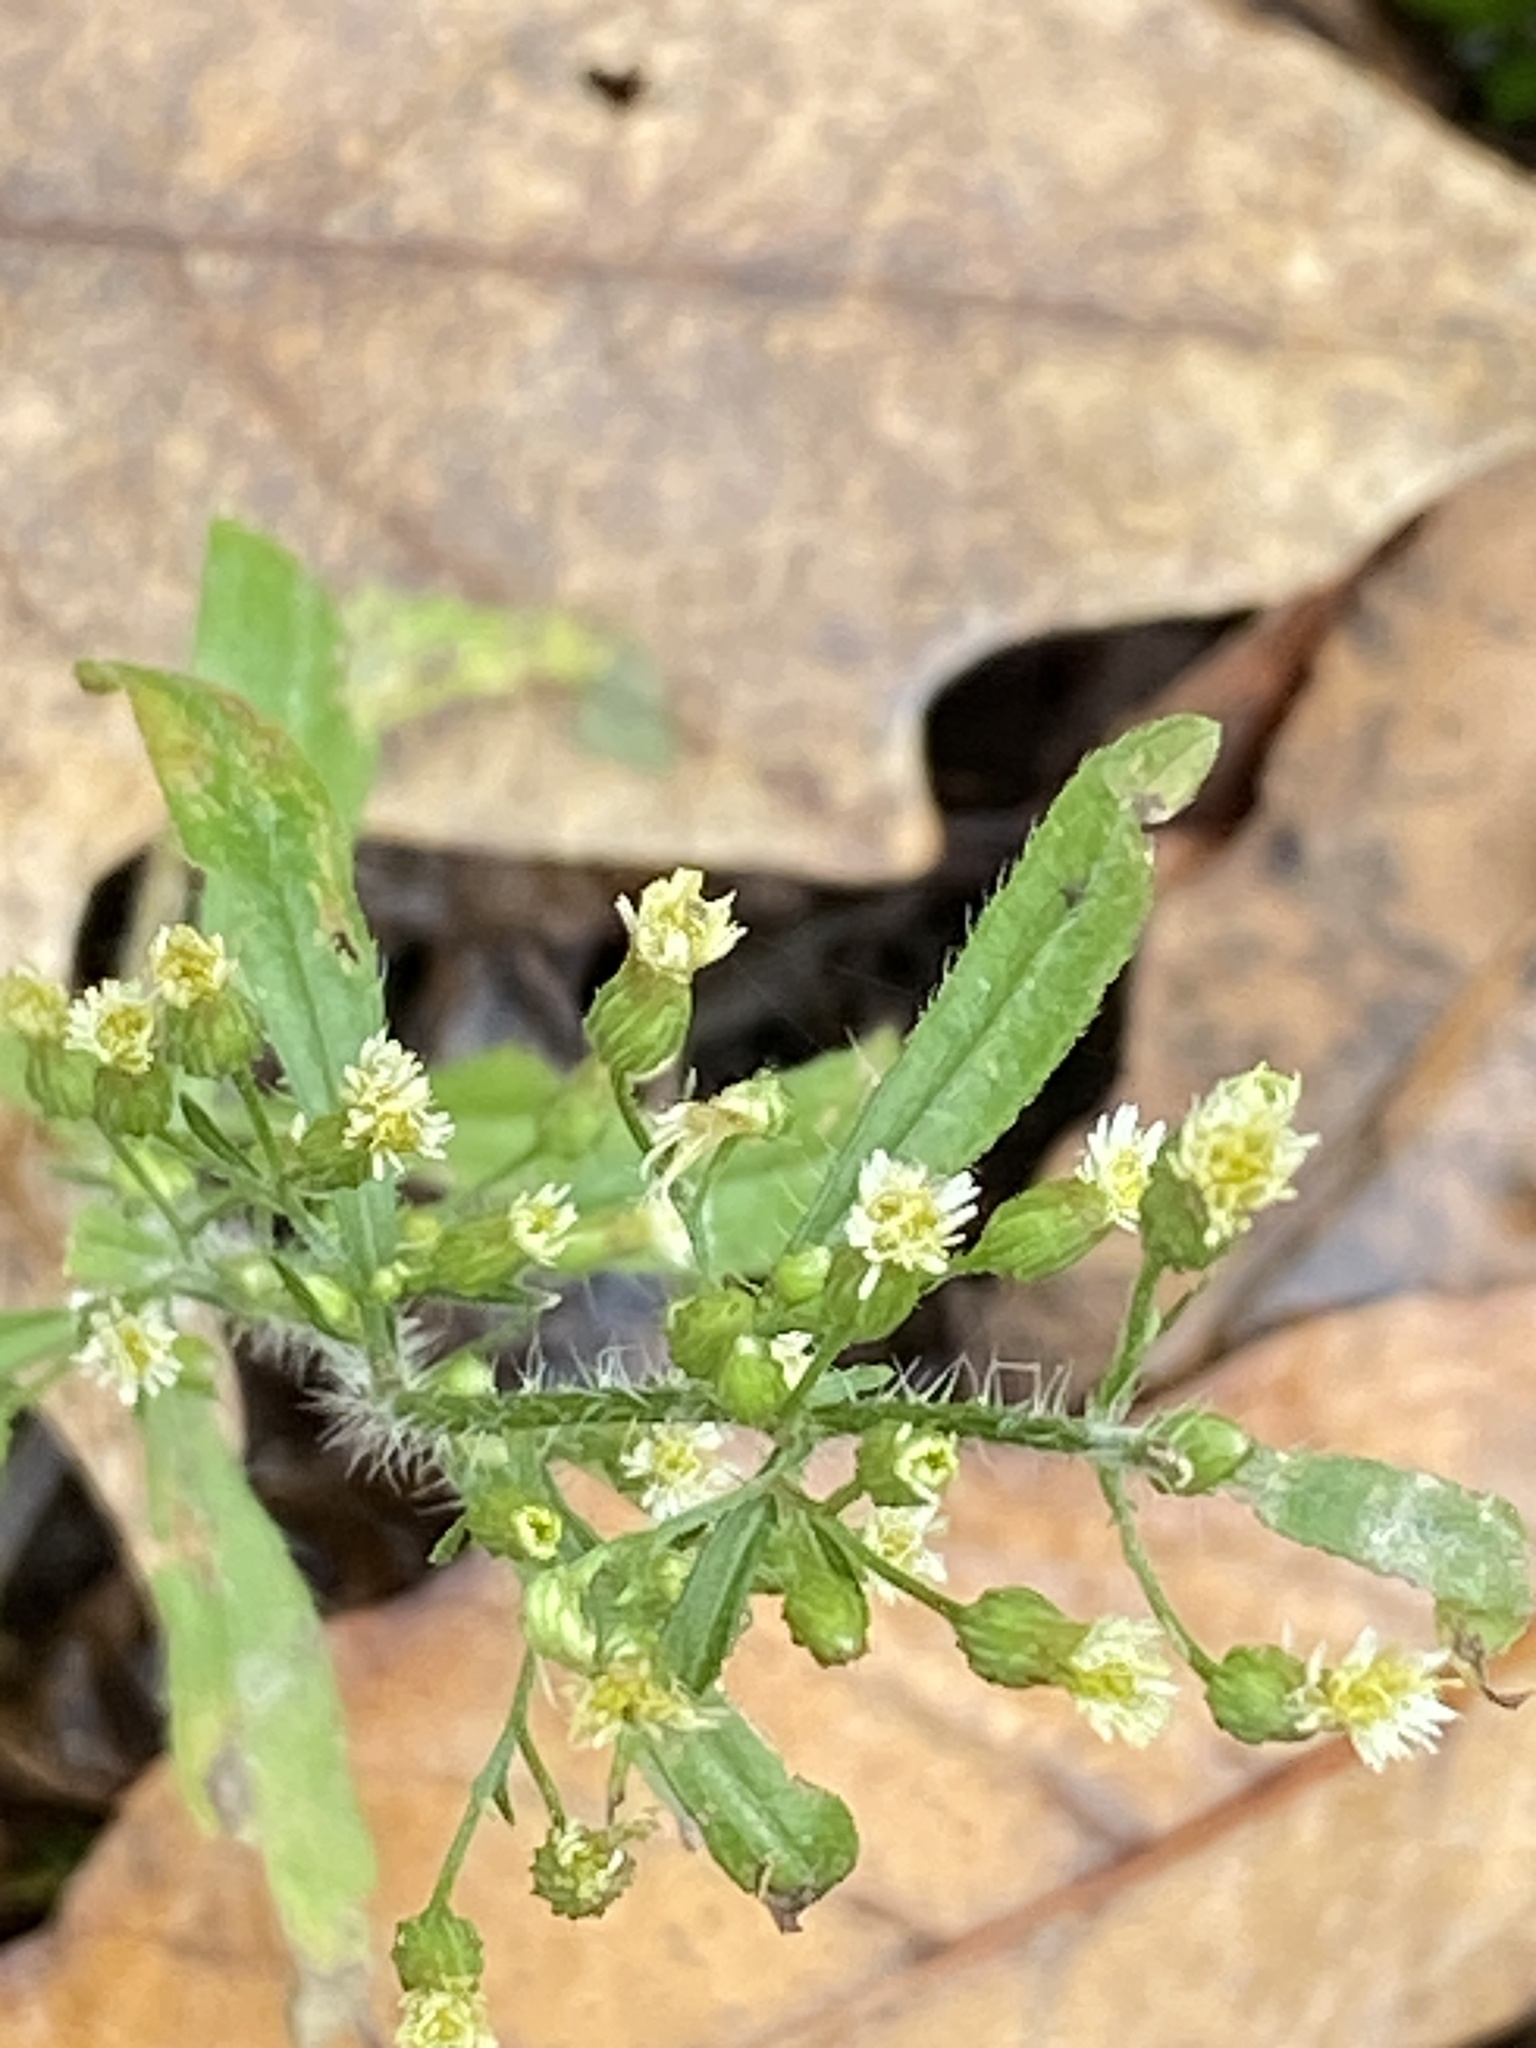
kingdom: Plantae
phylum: Tracheophyta
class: Magnoliopsida
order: Asterales
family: Asteraceae
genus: Erigeron
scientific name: Erigeron canadensis
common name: Canadian fleabane
